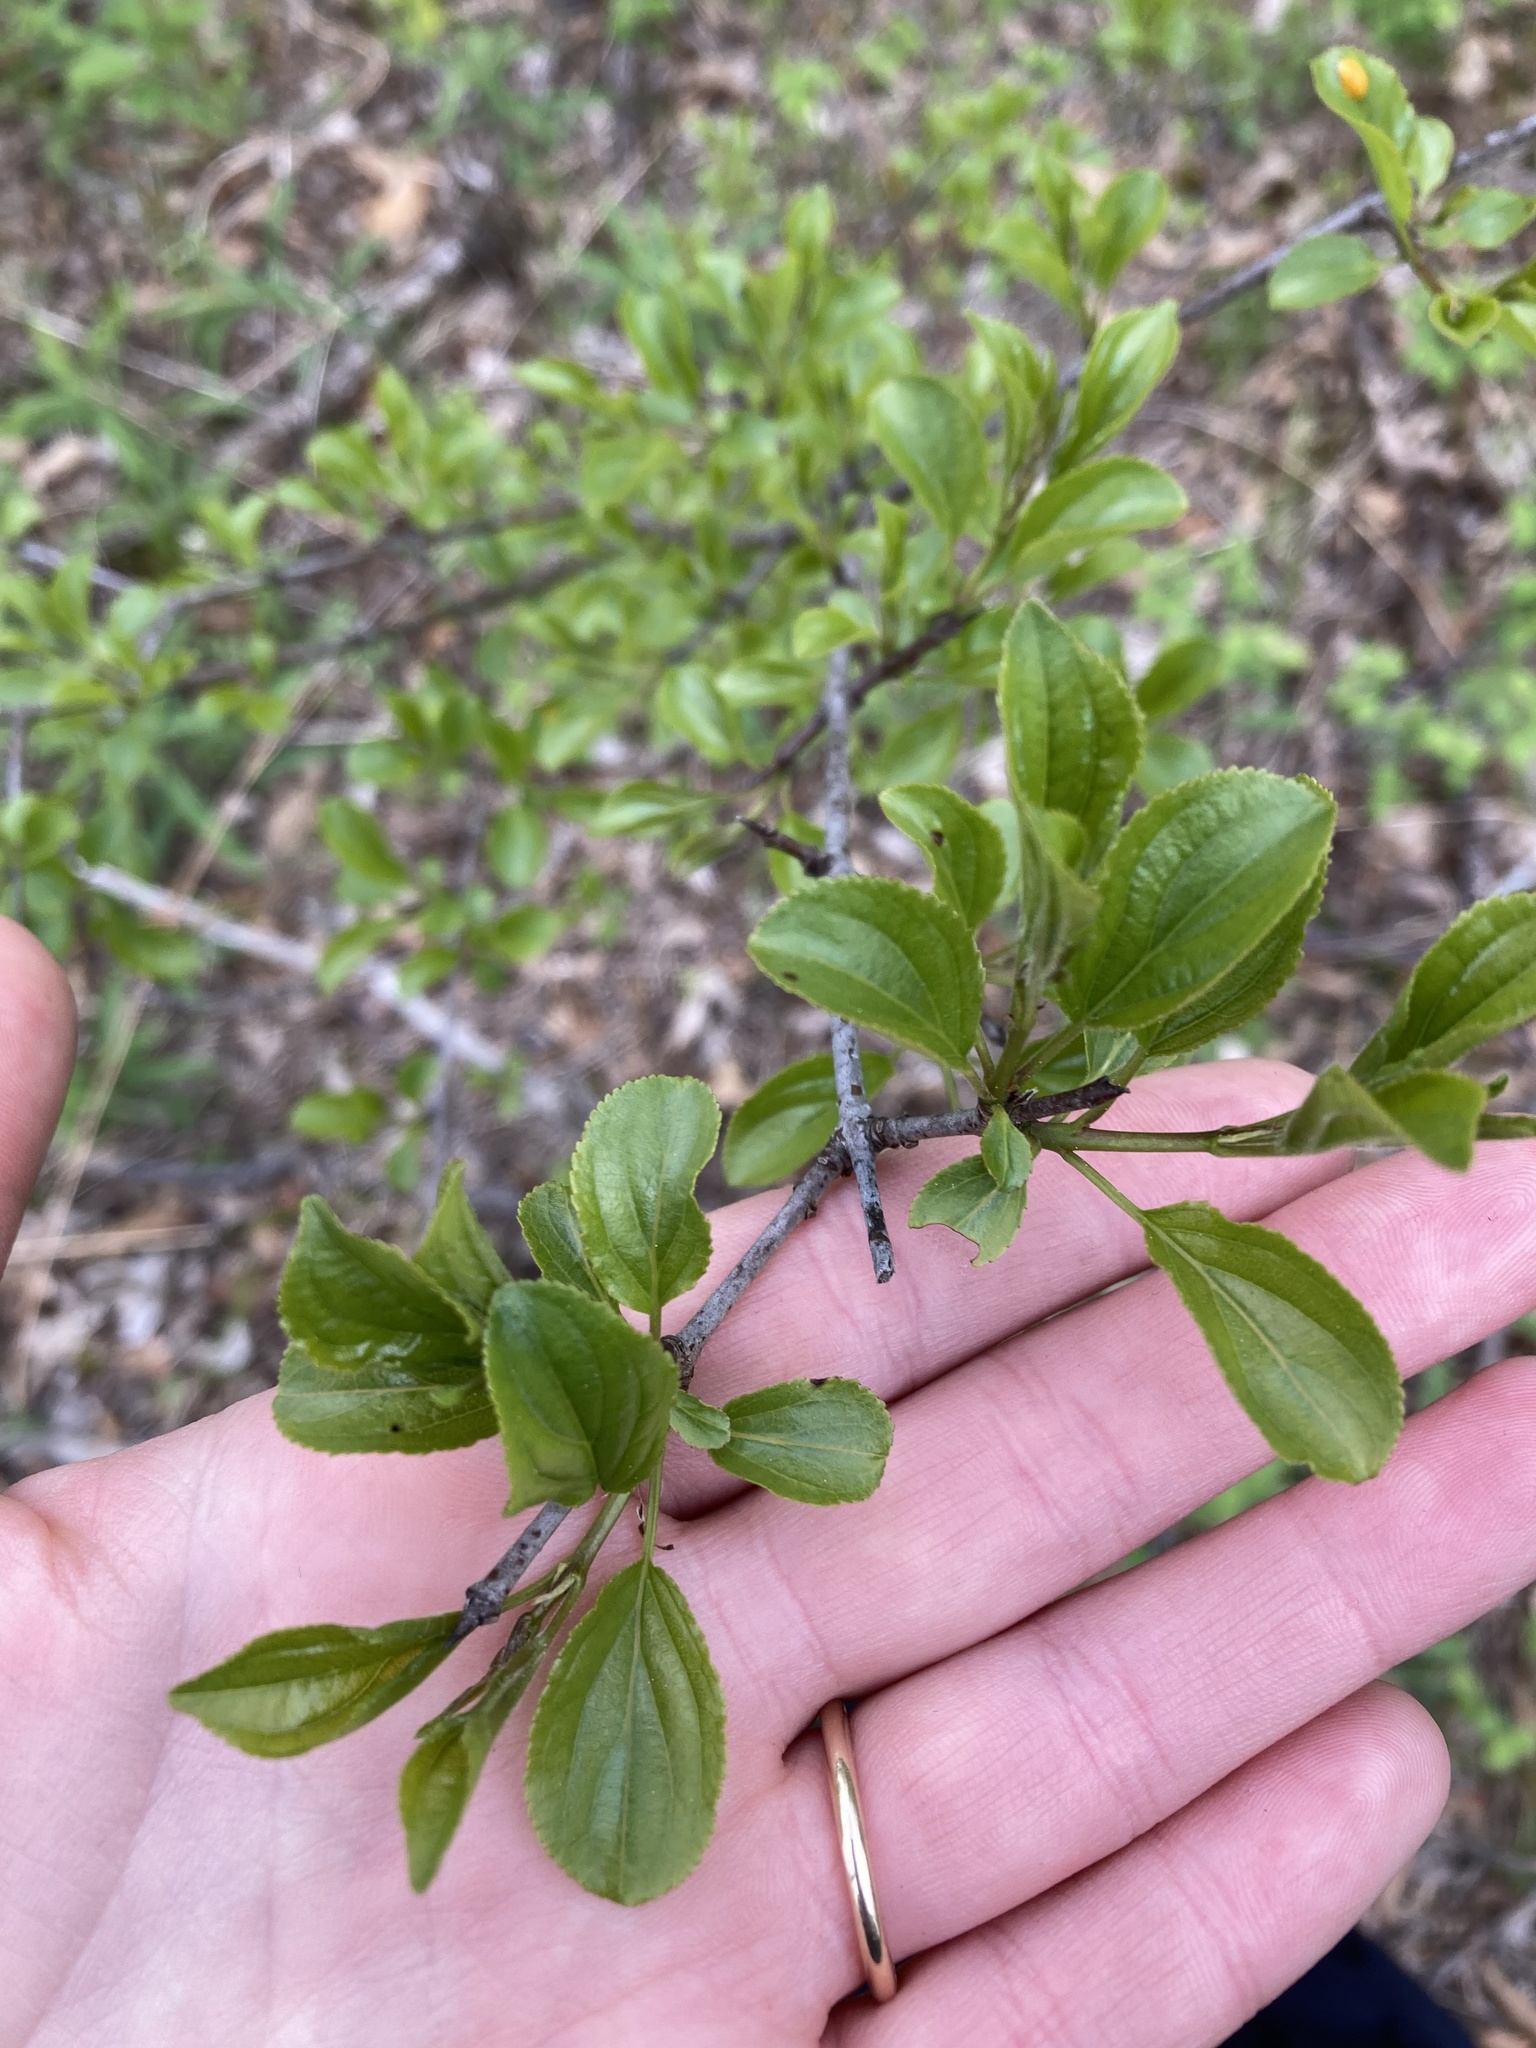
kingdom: Plantae
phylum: Tracheophyta
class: Magnoliopsida
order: Rosales
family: Rhamnaceae
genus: Rhamnus
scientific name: Rhamnus cathartica
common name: Common buckthorn
